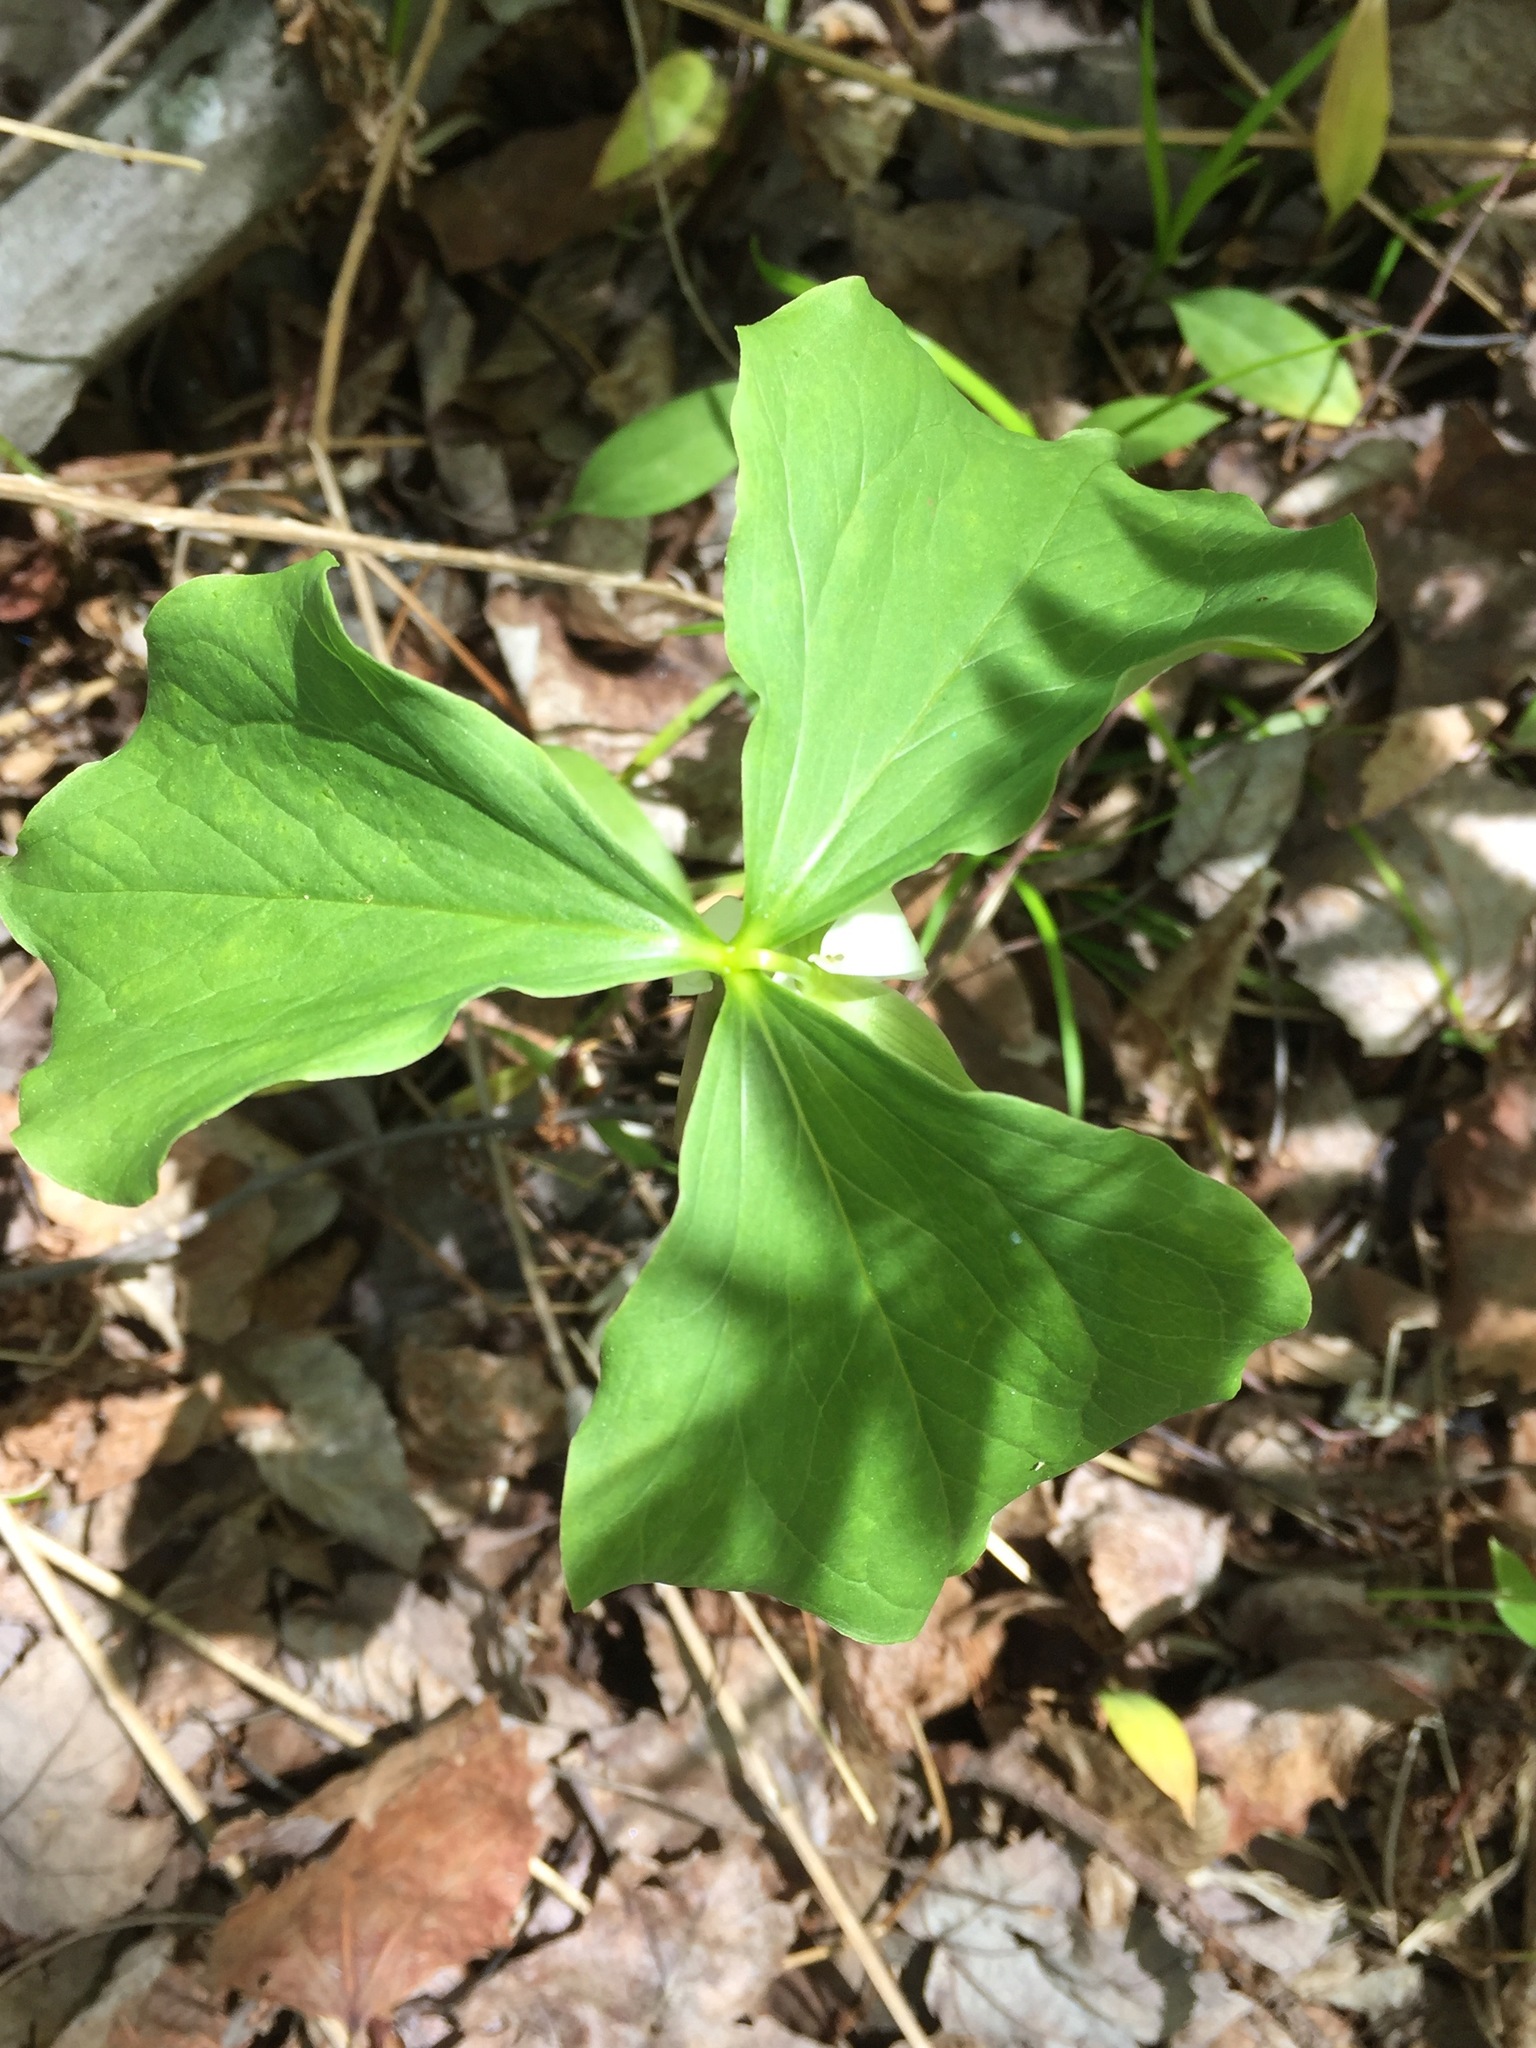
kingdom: Plantae
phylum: Tracheophyta
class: Liliopsida
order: Liliales
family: Melanthiaceae
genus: Trillium
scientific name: Trillium cernuum
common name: Nodding trillium
